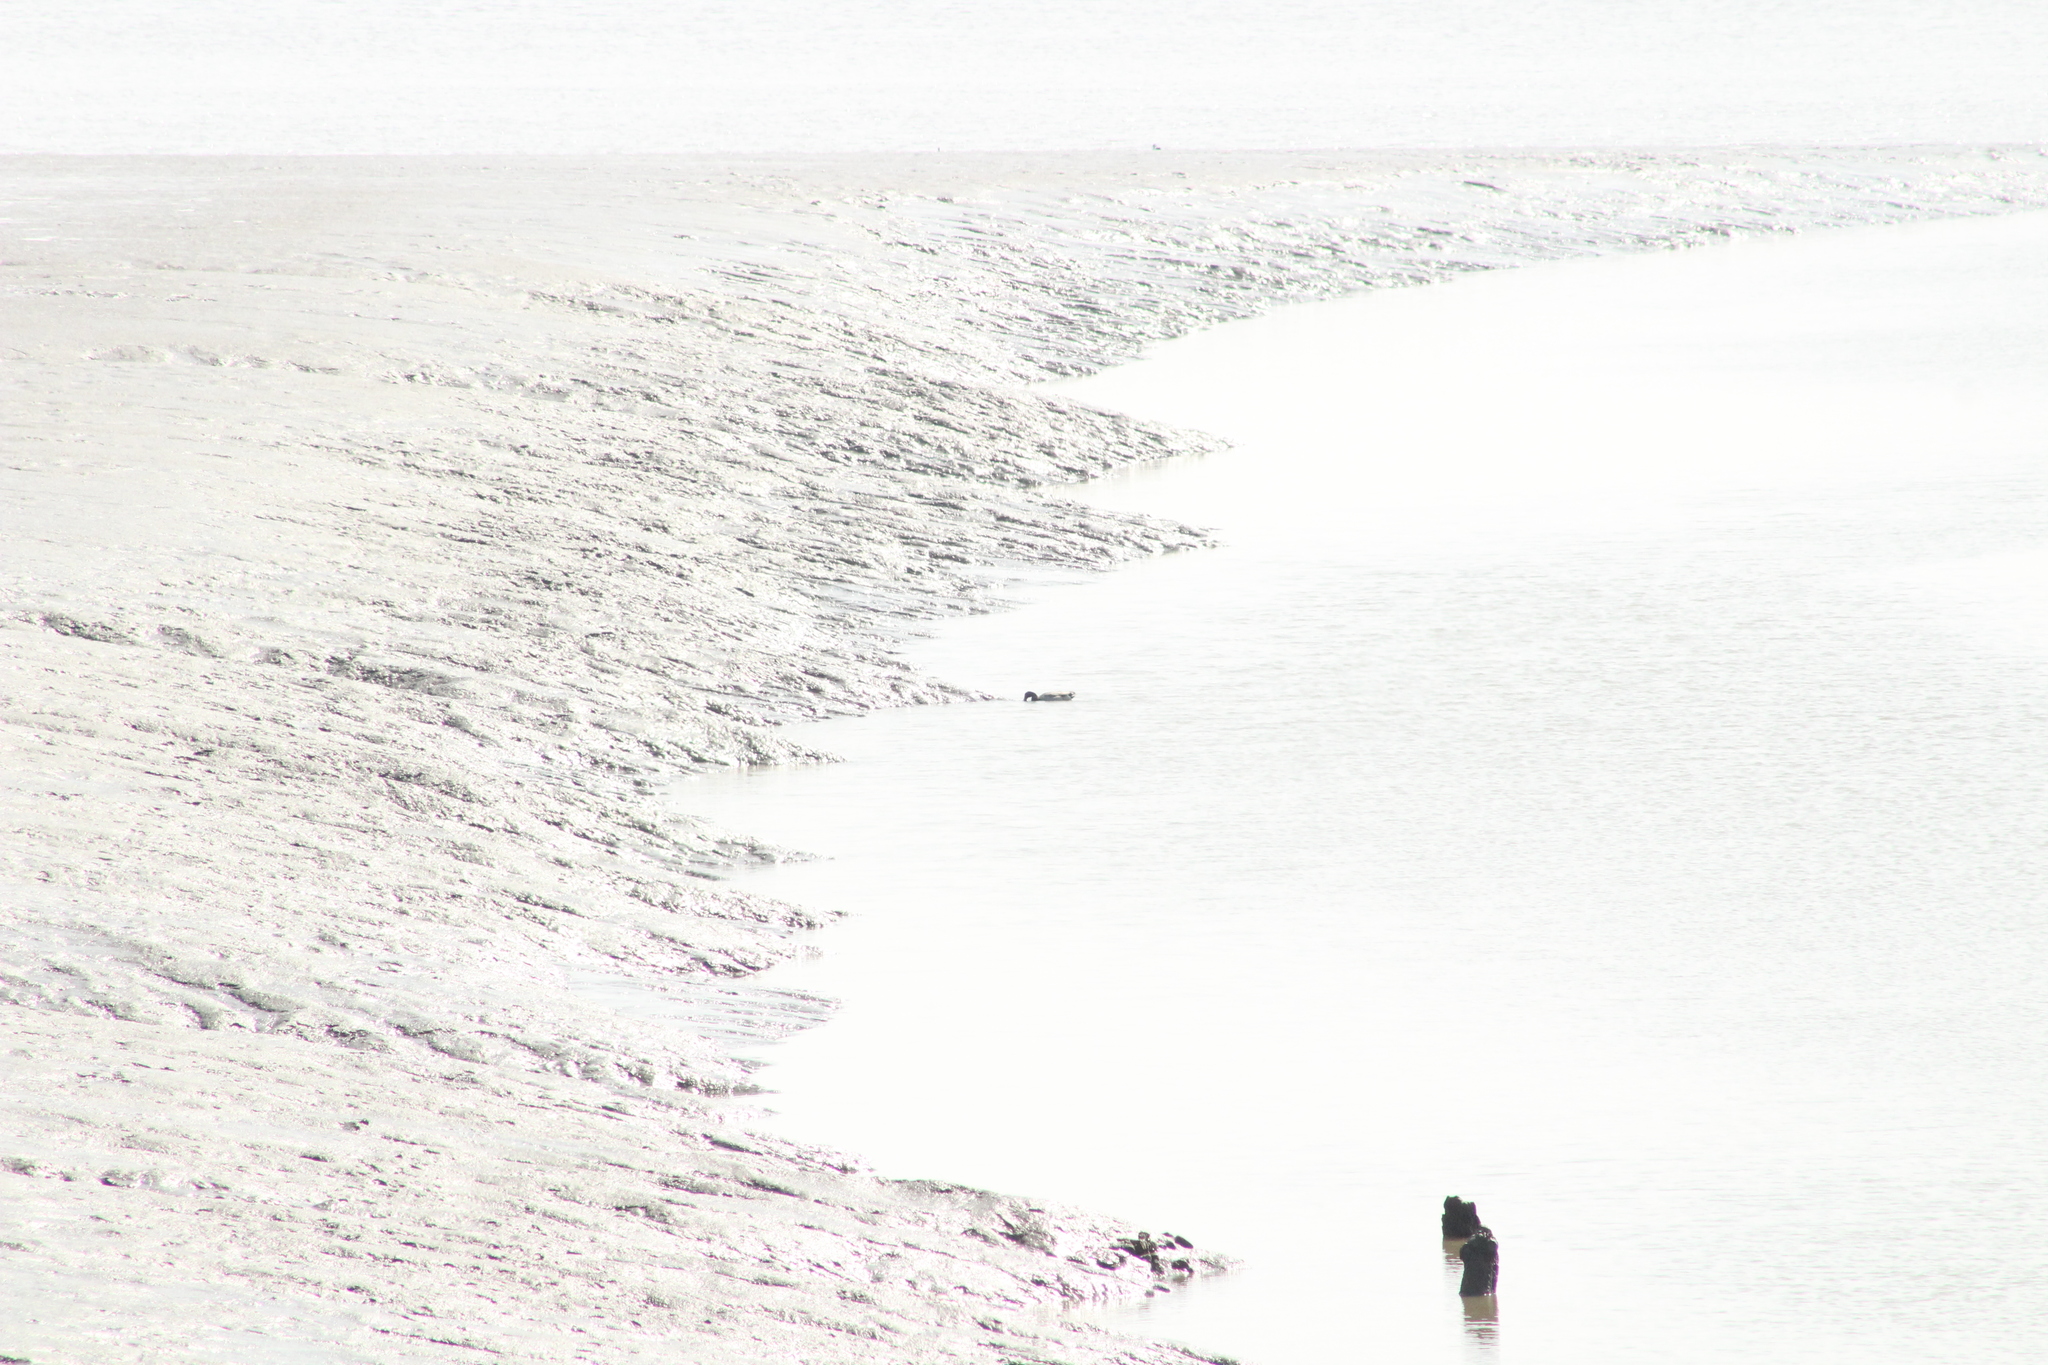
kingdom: Animalia
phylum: Chordata
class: Aves
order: Anseriformes
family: Anatidae
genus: Anas
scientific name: Anas platyrhynchos
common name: Mallard
